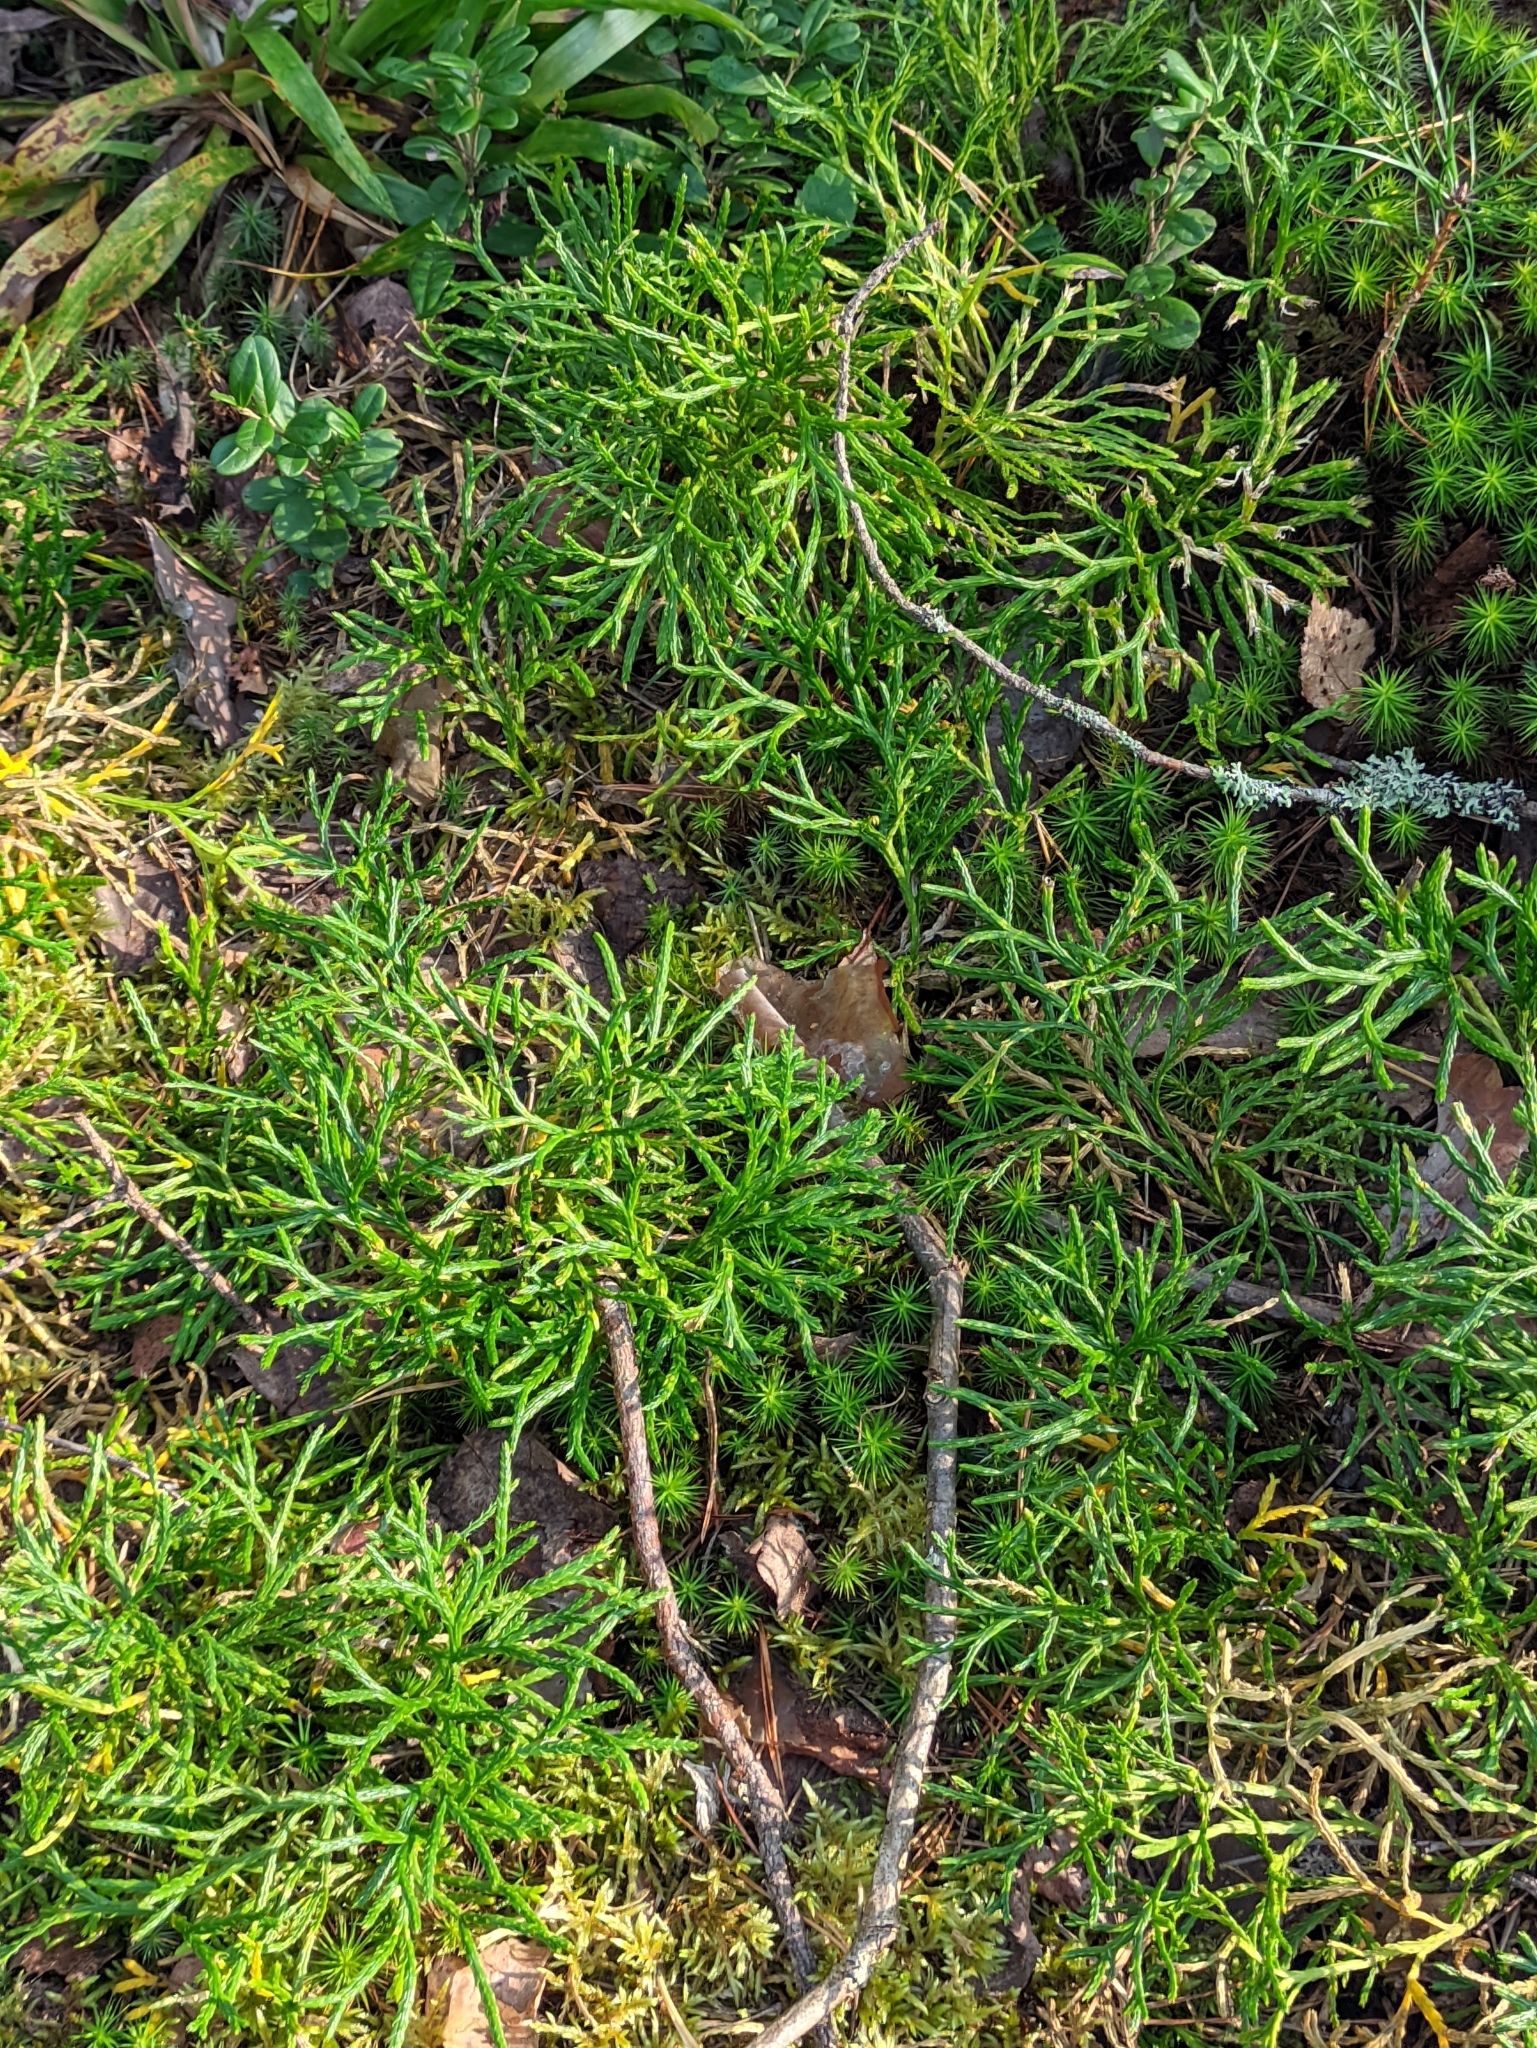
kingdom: Plantae
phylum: Tracheophyta
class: Lycopodiopsida
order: Lycopodiales
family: Lycopodiaceae
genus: Diphasiastrum
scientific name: Diphasiastrum complanatum
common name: Northern running-pine
